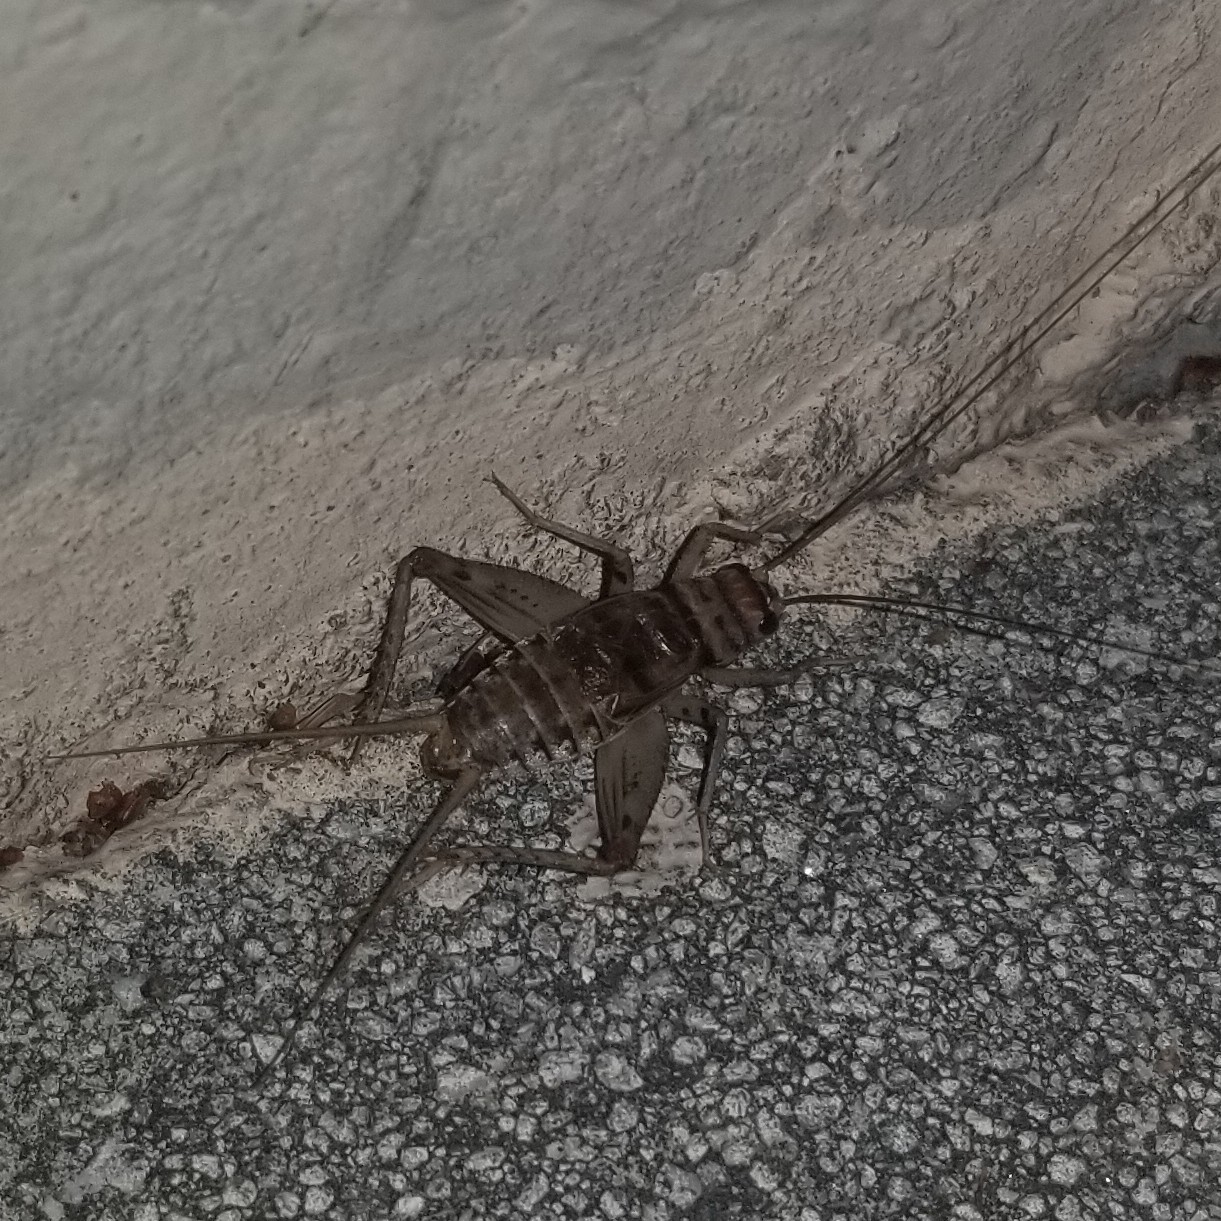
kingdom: Animalia
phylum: Arthropoda
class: Insecta
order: Orthoptera
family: Gryllidae
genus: Gryllodes
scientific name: Gryllodes sigillatus
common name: Tropical house cricket
